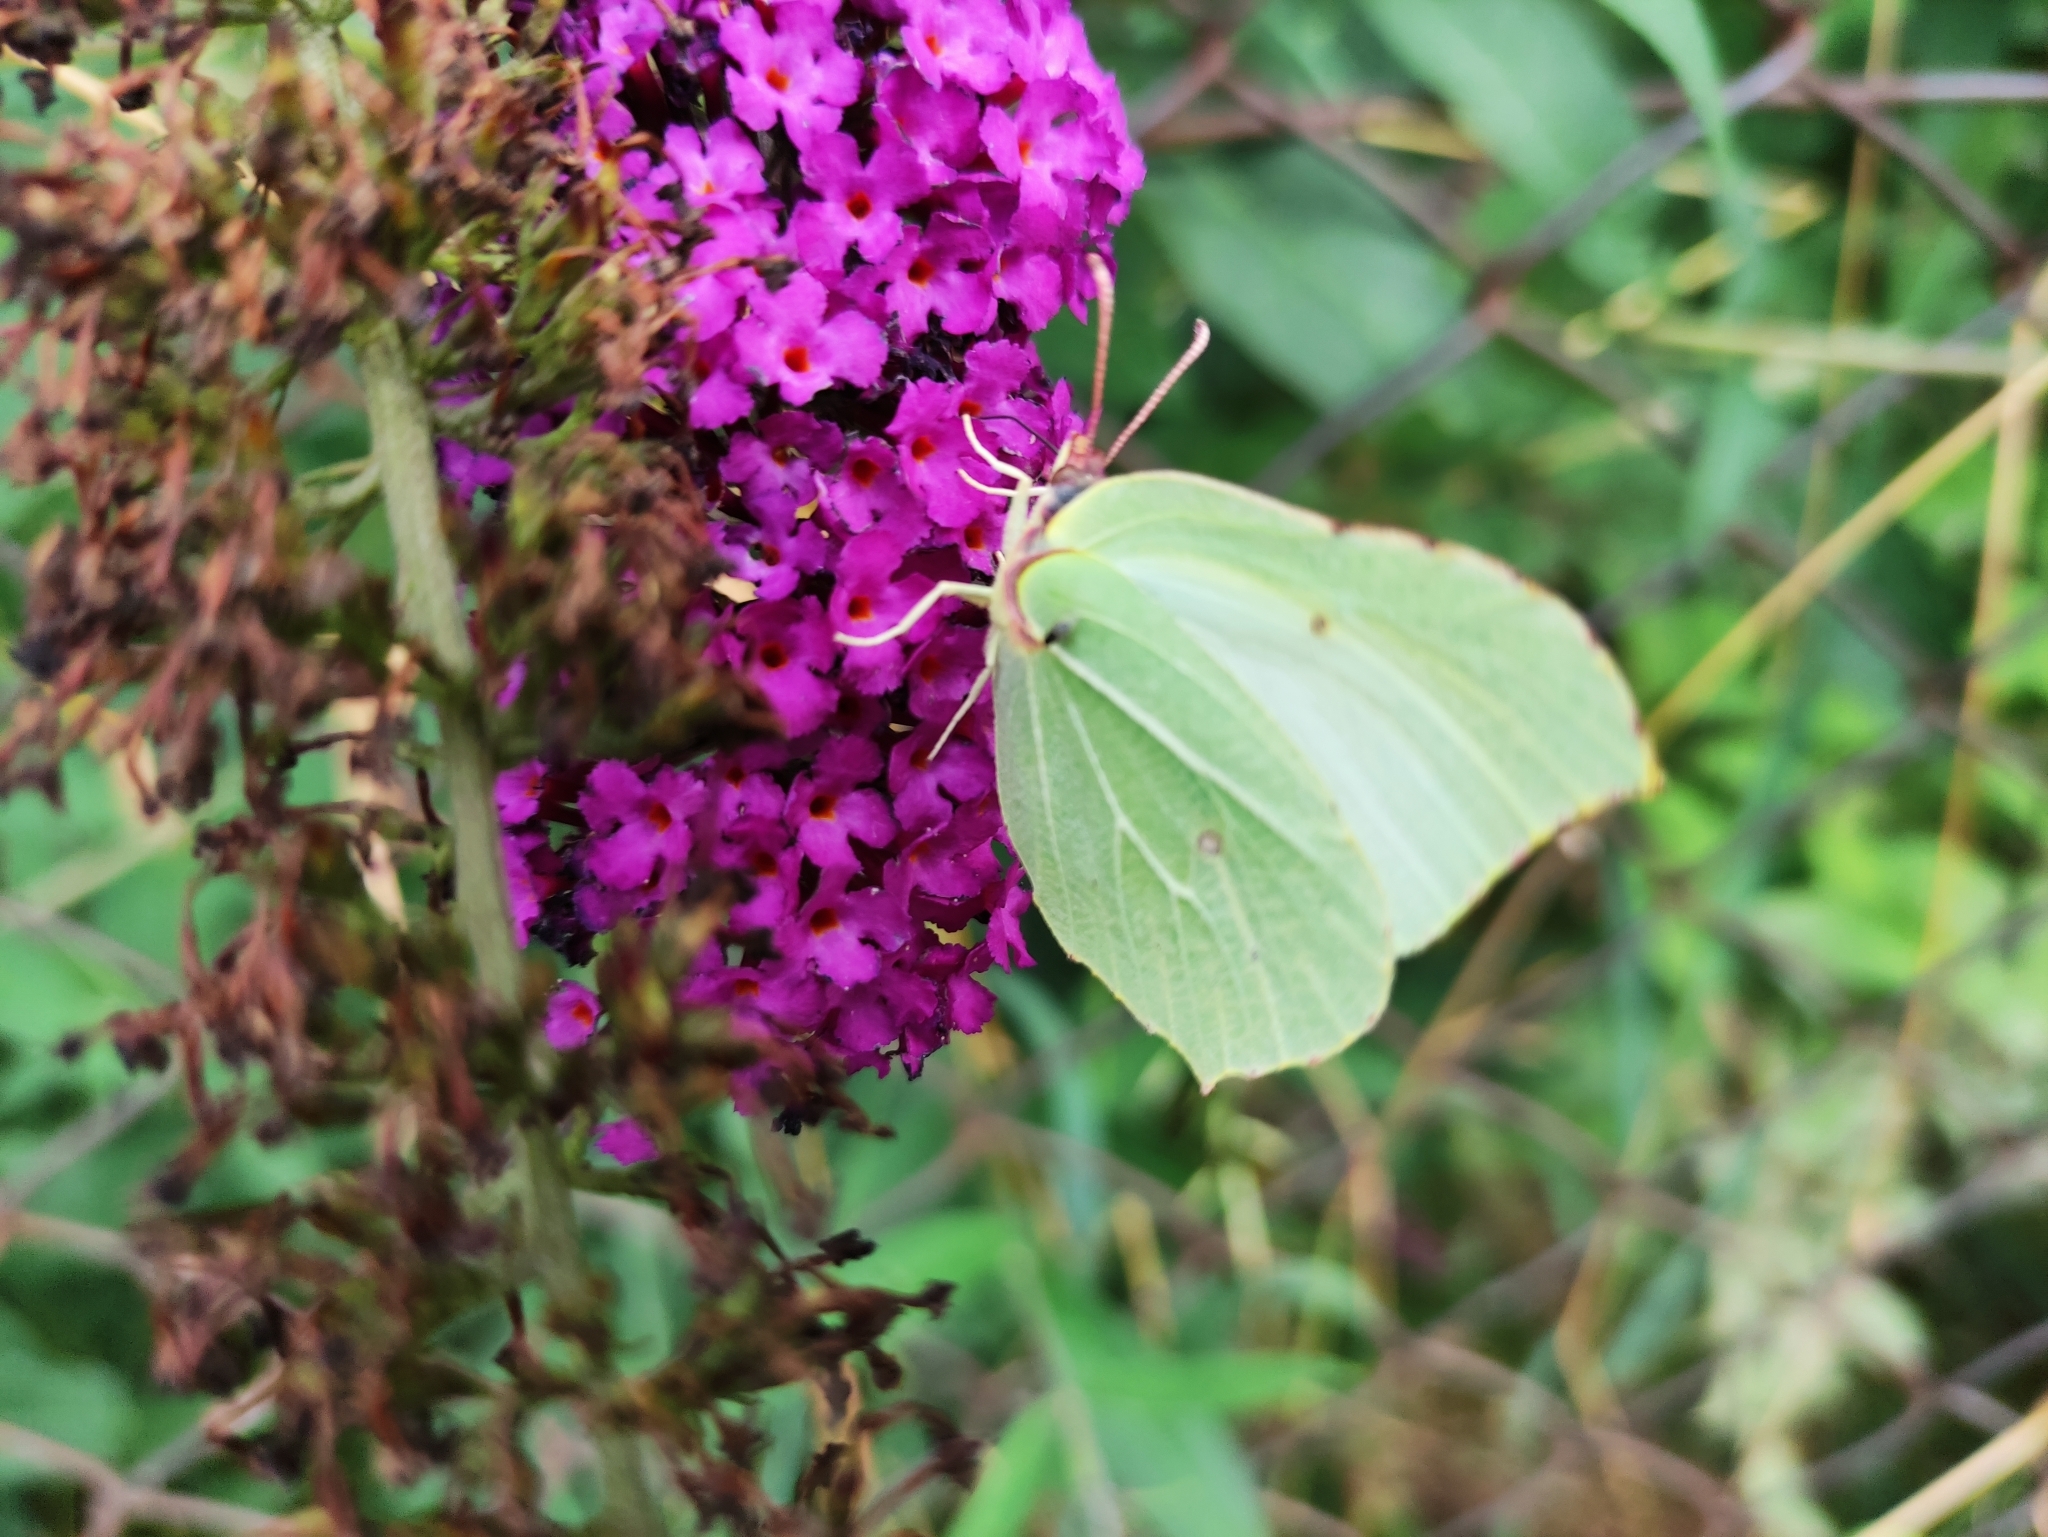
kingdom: Animalia
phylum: Arthropoda
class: Insecta
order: Lepidoptera
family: Pieridae
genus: Gonepteryx
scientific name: Gonepteryx rhamni
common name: Brimstone
